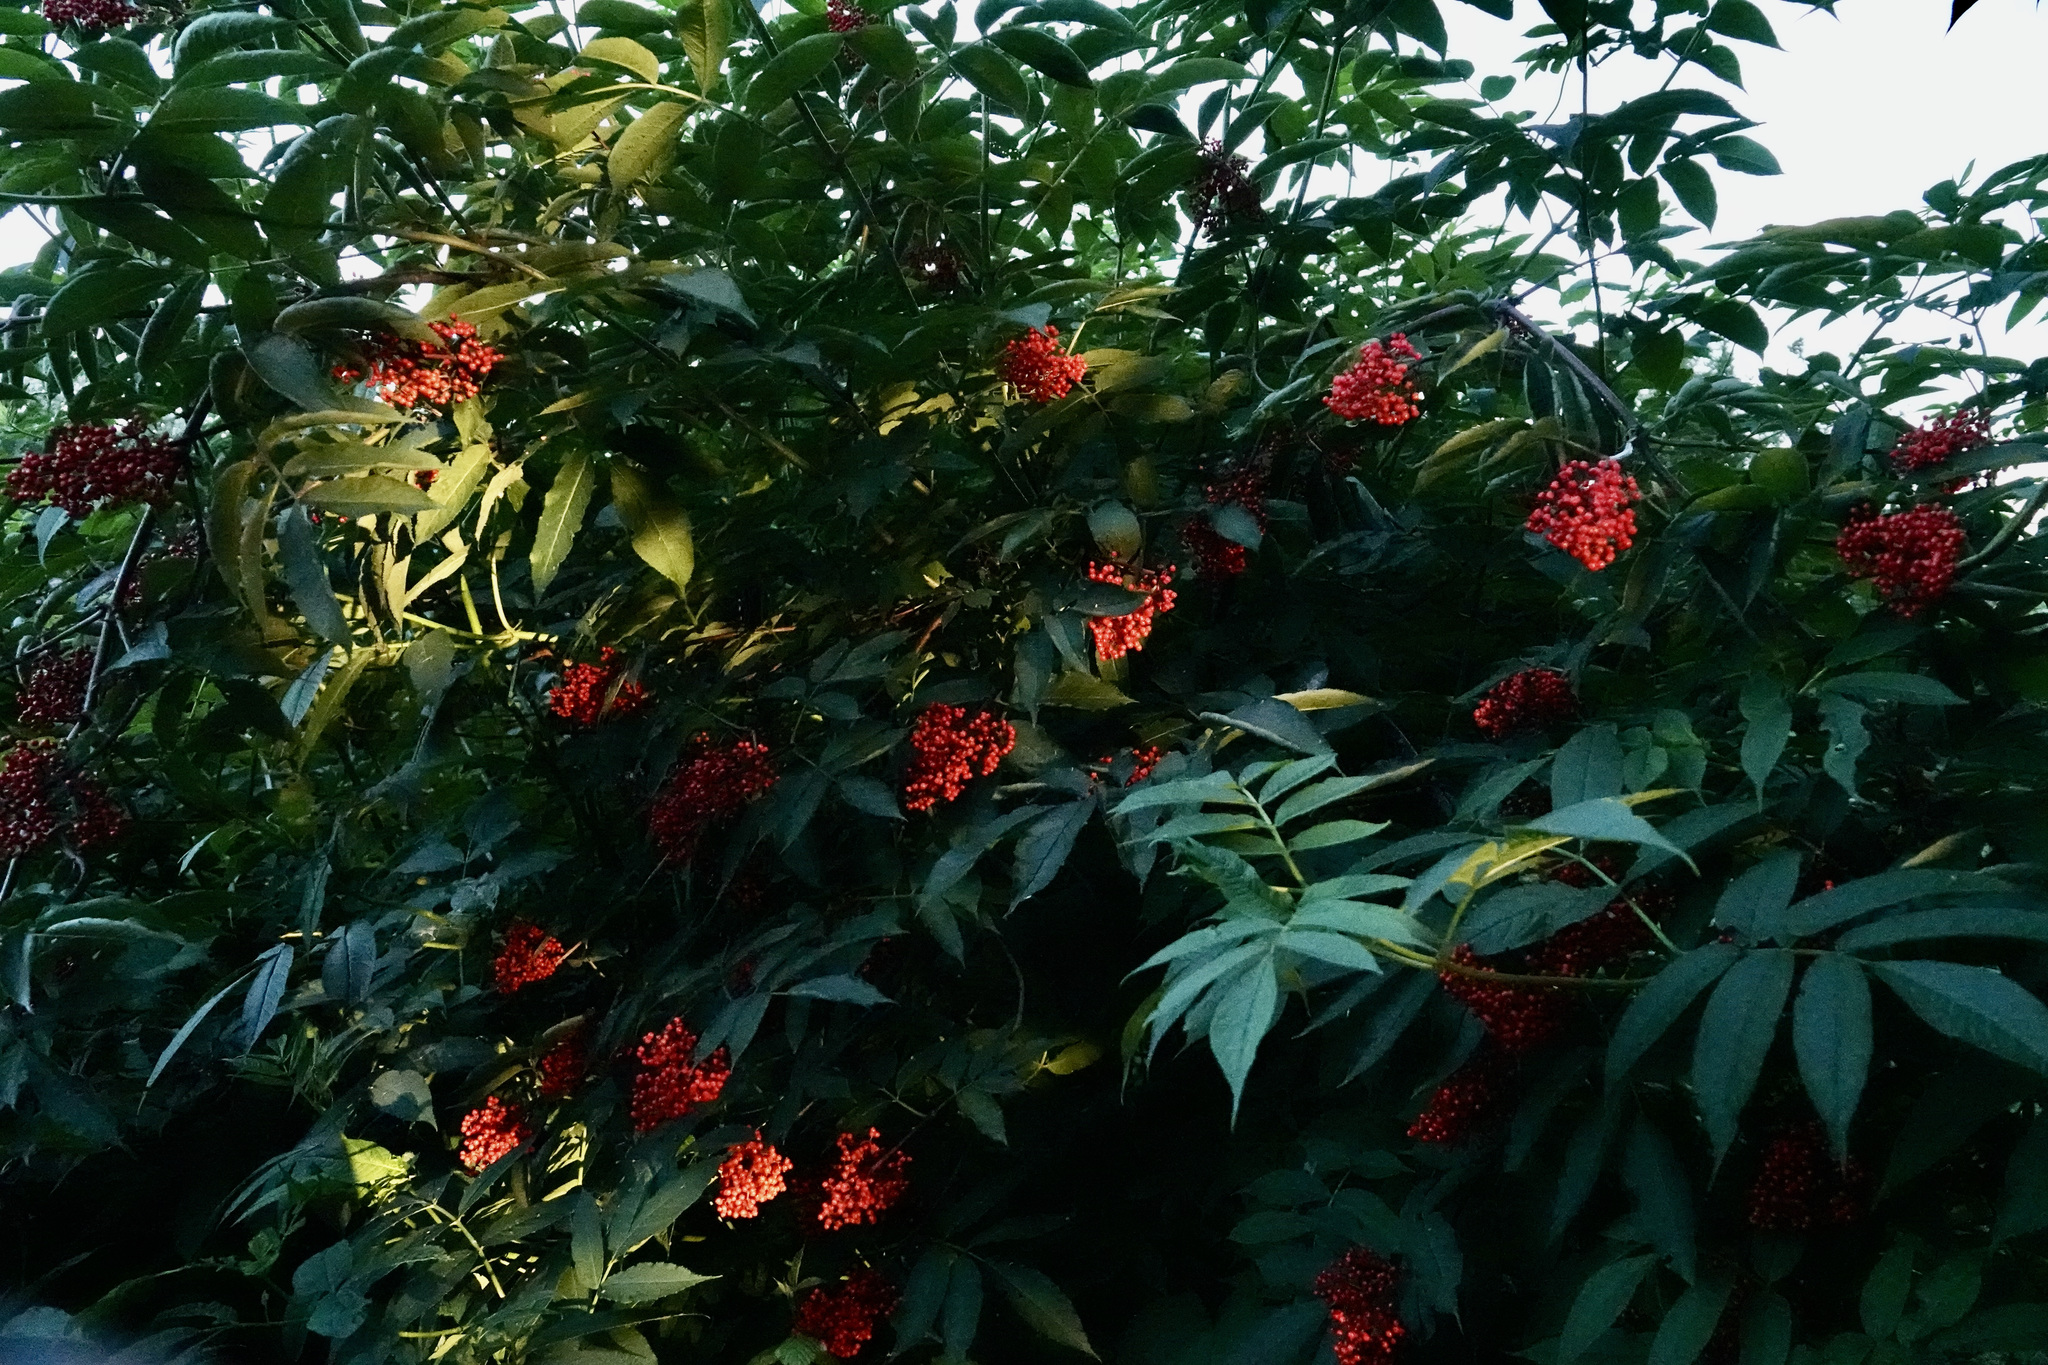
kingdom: Plantae
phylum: Tracheophyta
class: Magnoliopsida
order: Dipsacales
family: Viburnaceae
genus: Sambucus
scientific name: Sambucus racemosa
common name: Red-berried elder
